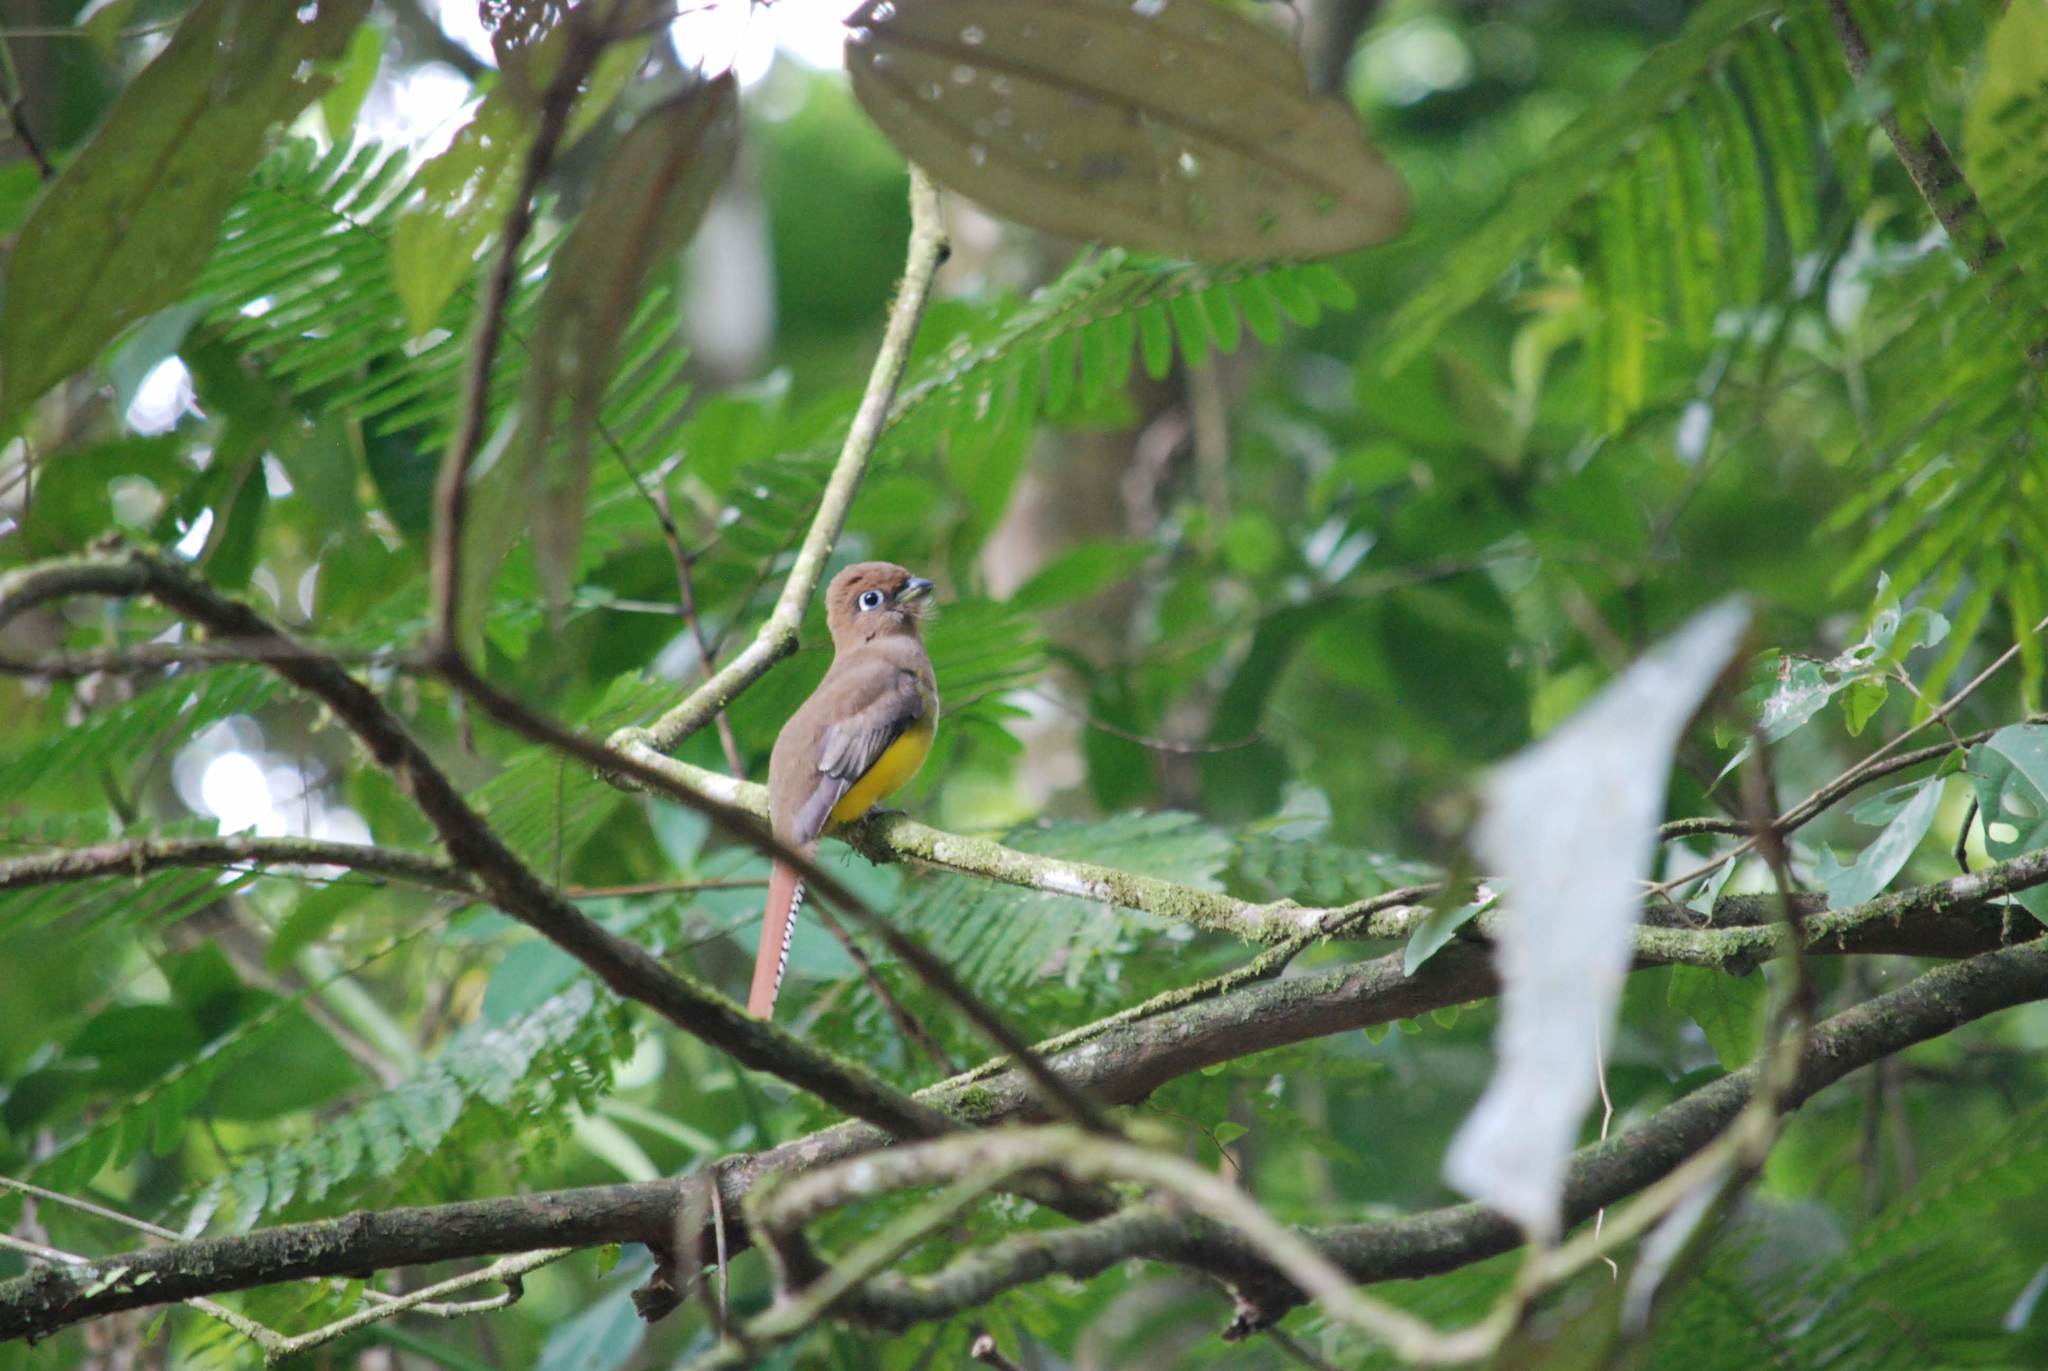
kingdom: Animalia
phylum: Chordata
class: Aves
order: Trogoniformes
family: Trogonidae
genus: Trogon
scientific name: Trogon rufus
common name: Black-throated trogon
